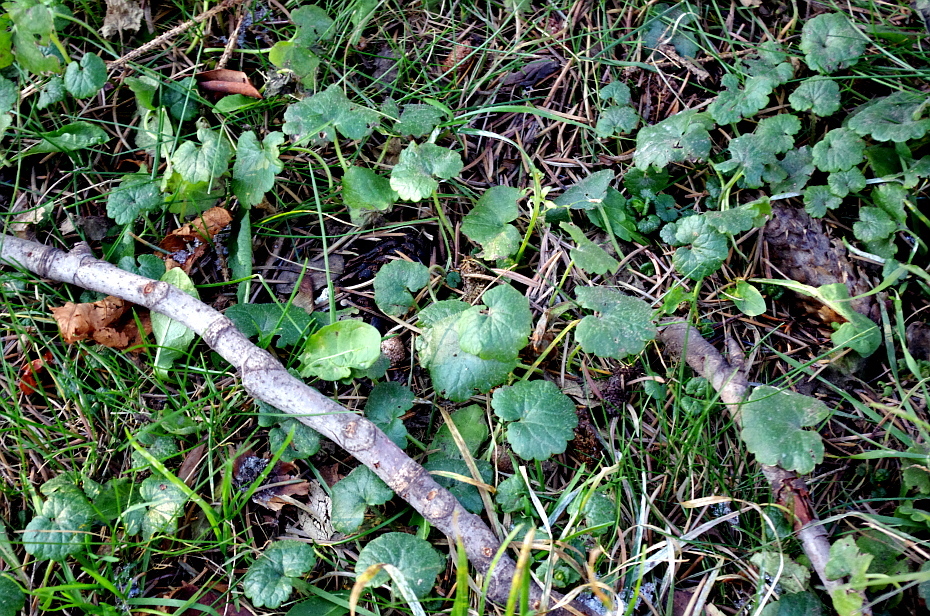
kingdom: Plantae
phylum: Tracheophyta
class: Magnoliopsida
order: Lamiales
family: Lamiaceae
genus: Glechoma
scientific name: Glechoma hederacea
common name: Ground ivy
